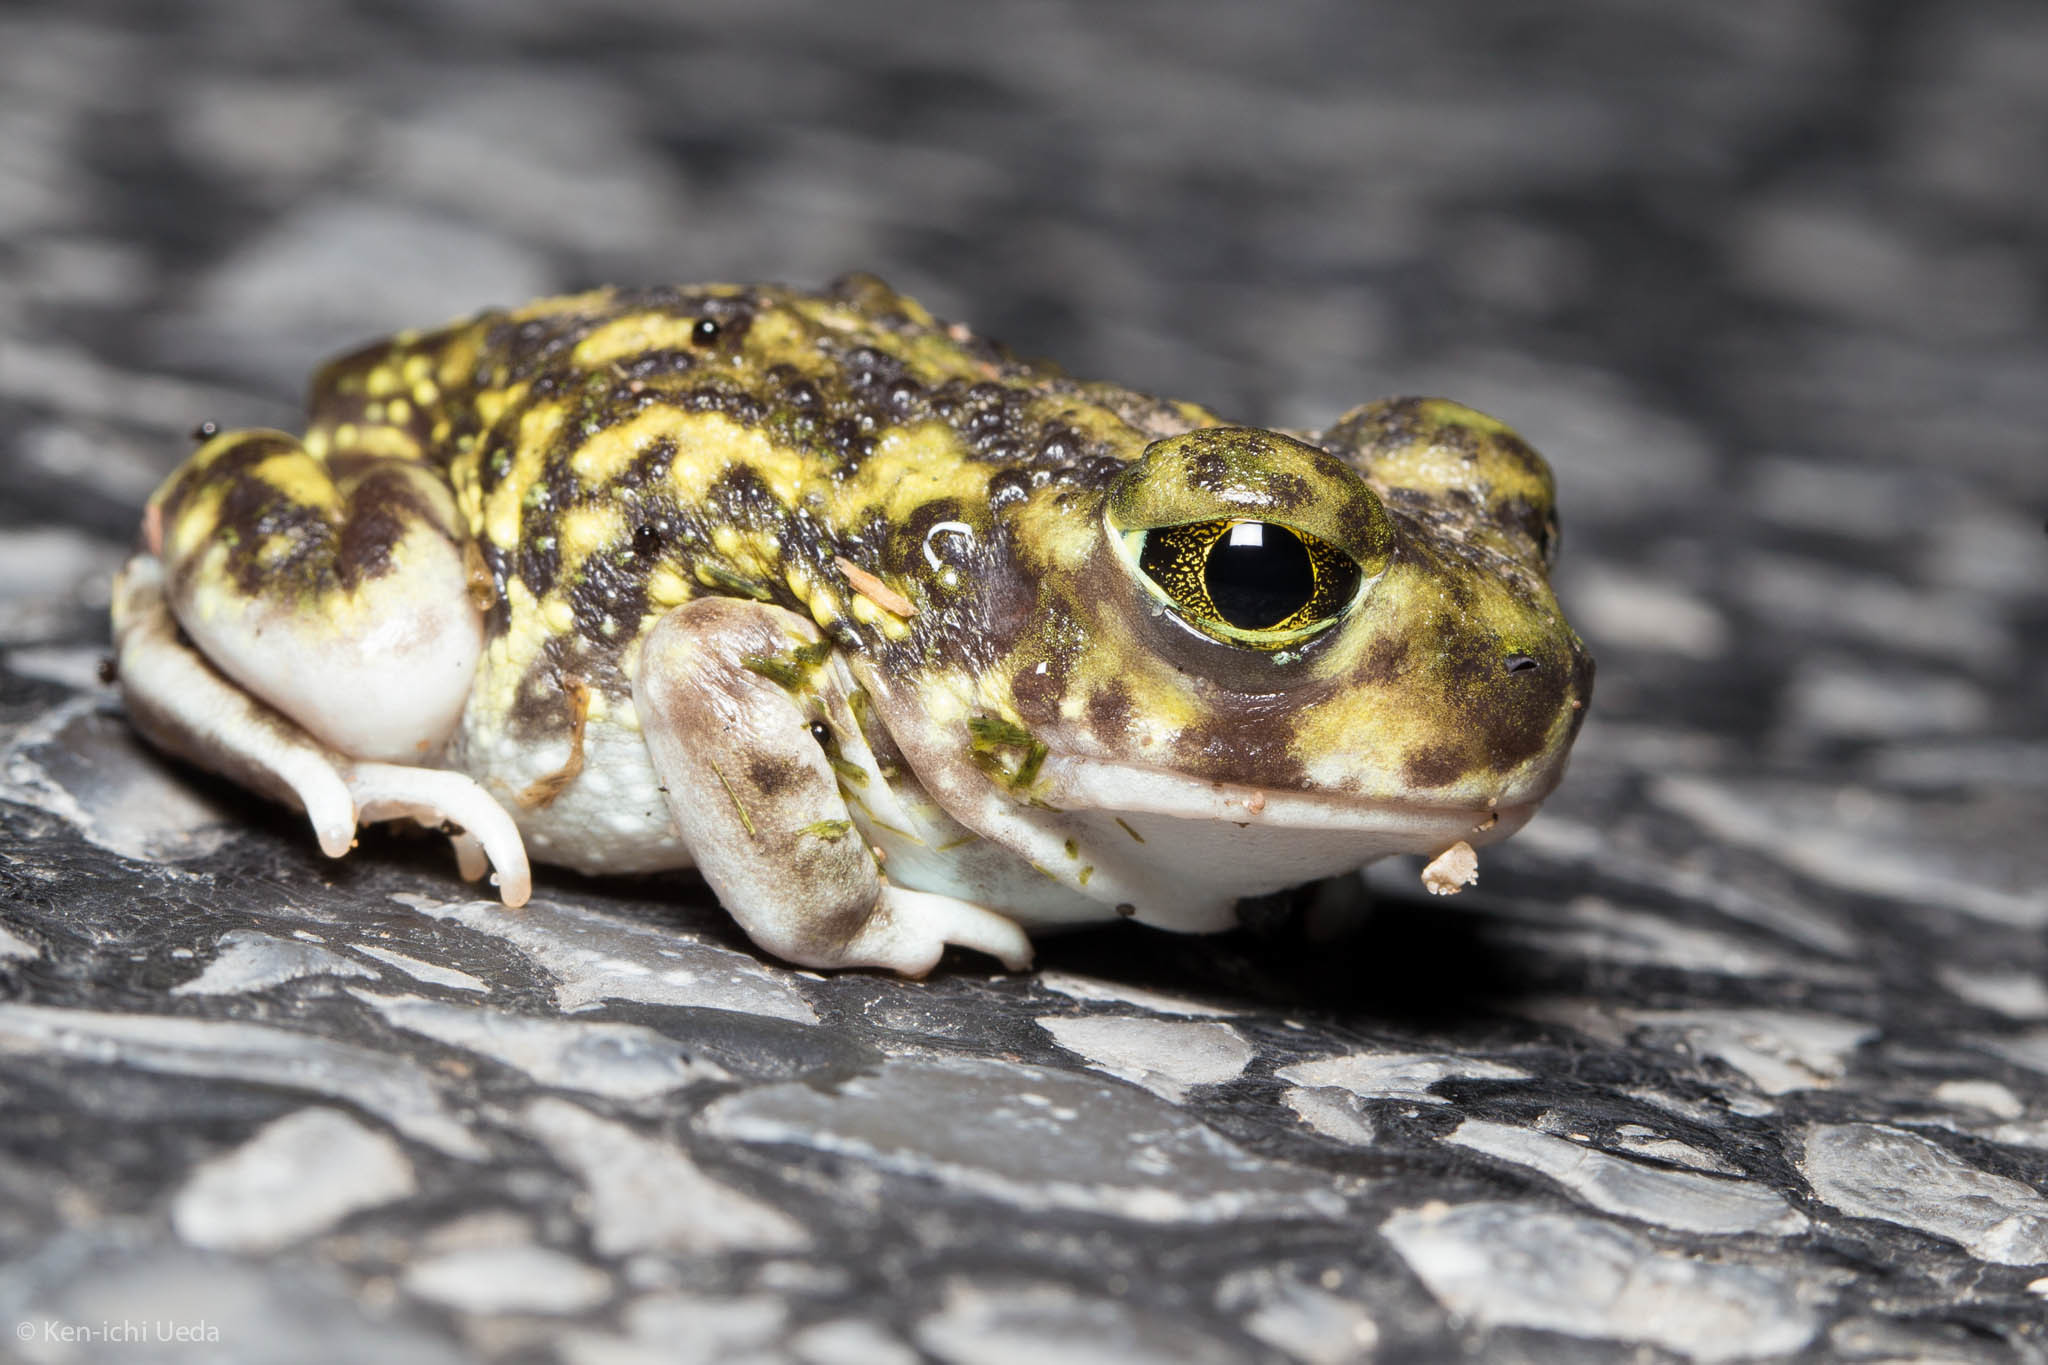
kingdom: Animalia
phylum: Chordata
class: Amphibia
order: Anura
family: Scaphiopodidae
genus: Scaphiopus
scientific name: Scaphiopus couchii
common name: Couch's spadefoot toad
